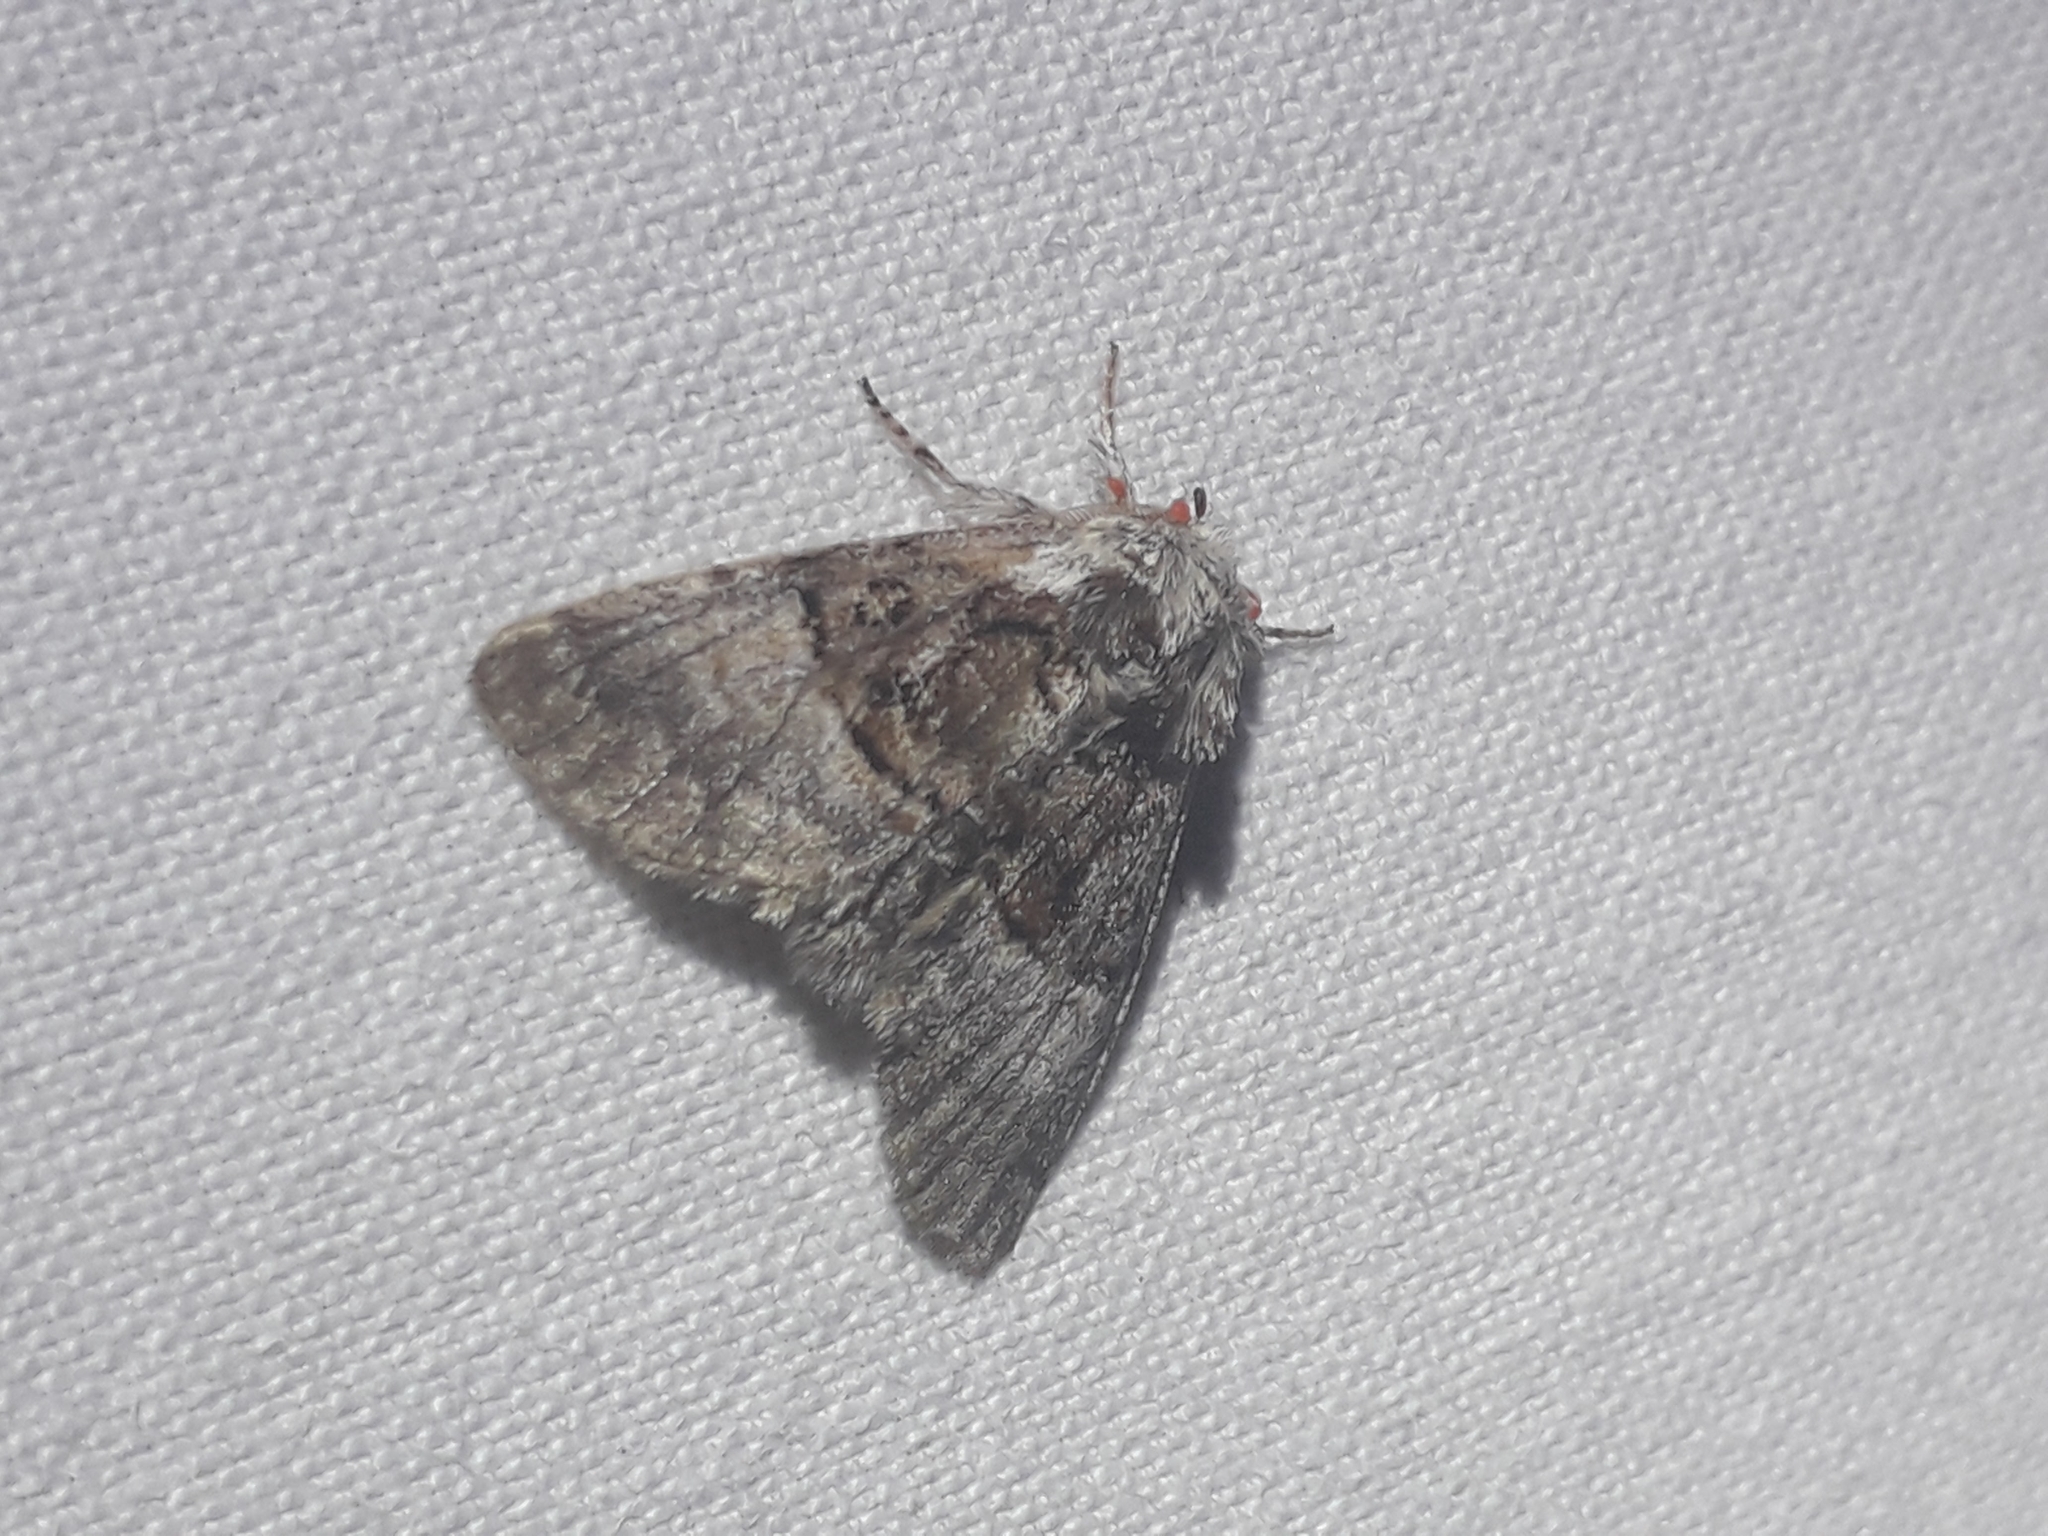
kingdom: Animalia
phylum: Arthropoda
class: Insecta
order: Lepidoptera
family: Noctuidae
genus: Colocasia
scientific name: Colocasia coryli
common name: Nut-tree tussock
